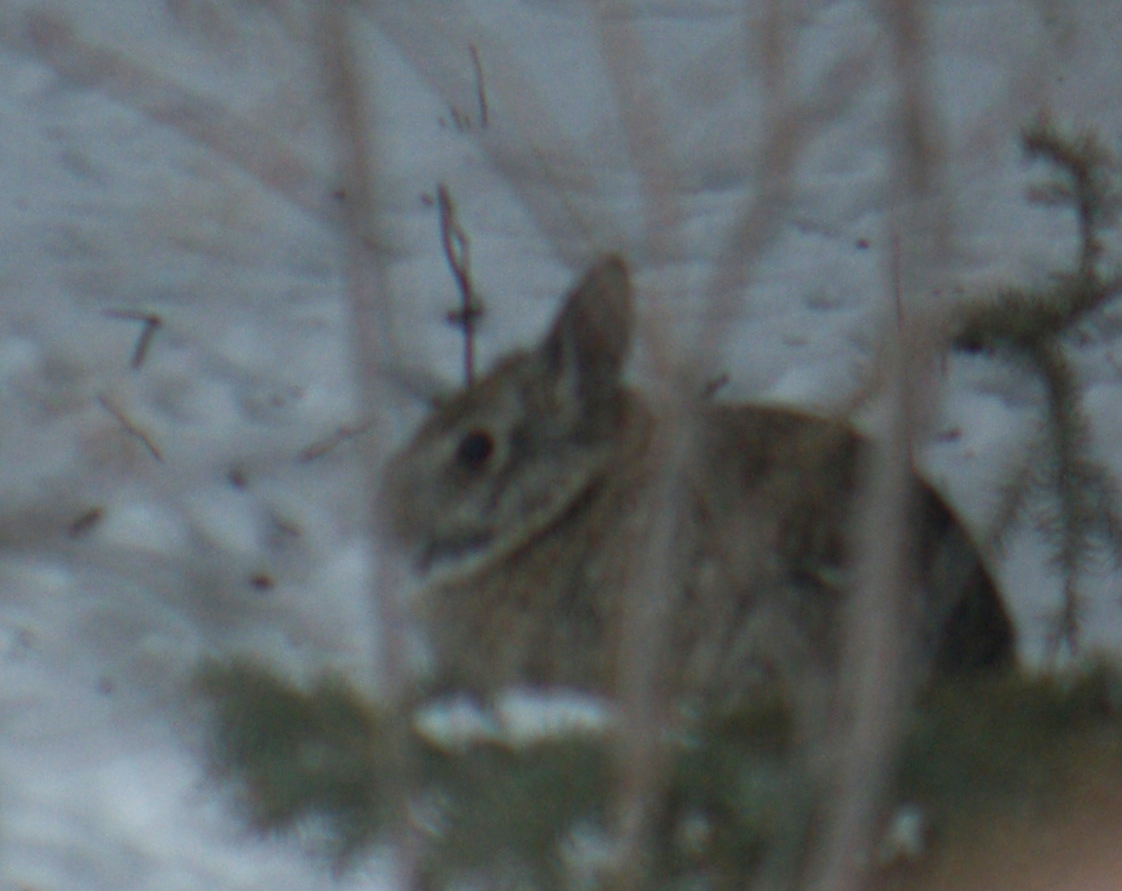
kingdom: Animalia
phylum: Chordata
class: Mammalia
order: Lagomorpha
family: Leporidae
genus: Sylvilagus
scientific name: Sylvilagus floridanus
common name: Eastern cottontail
